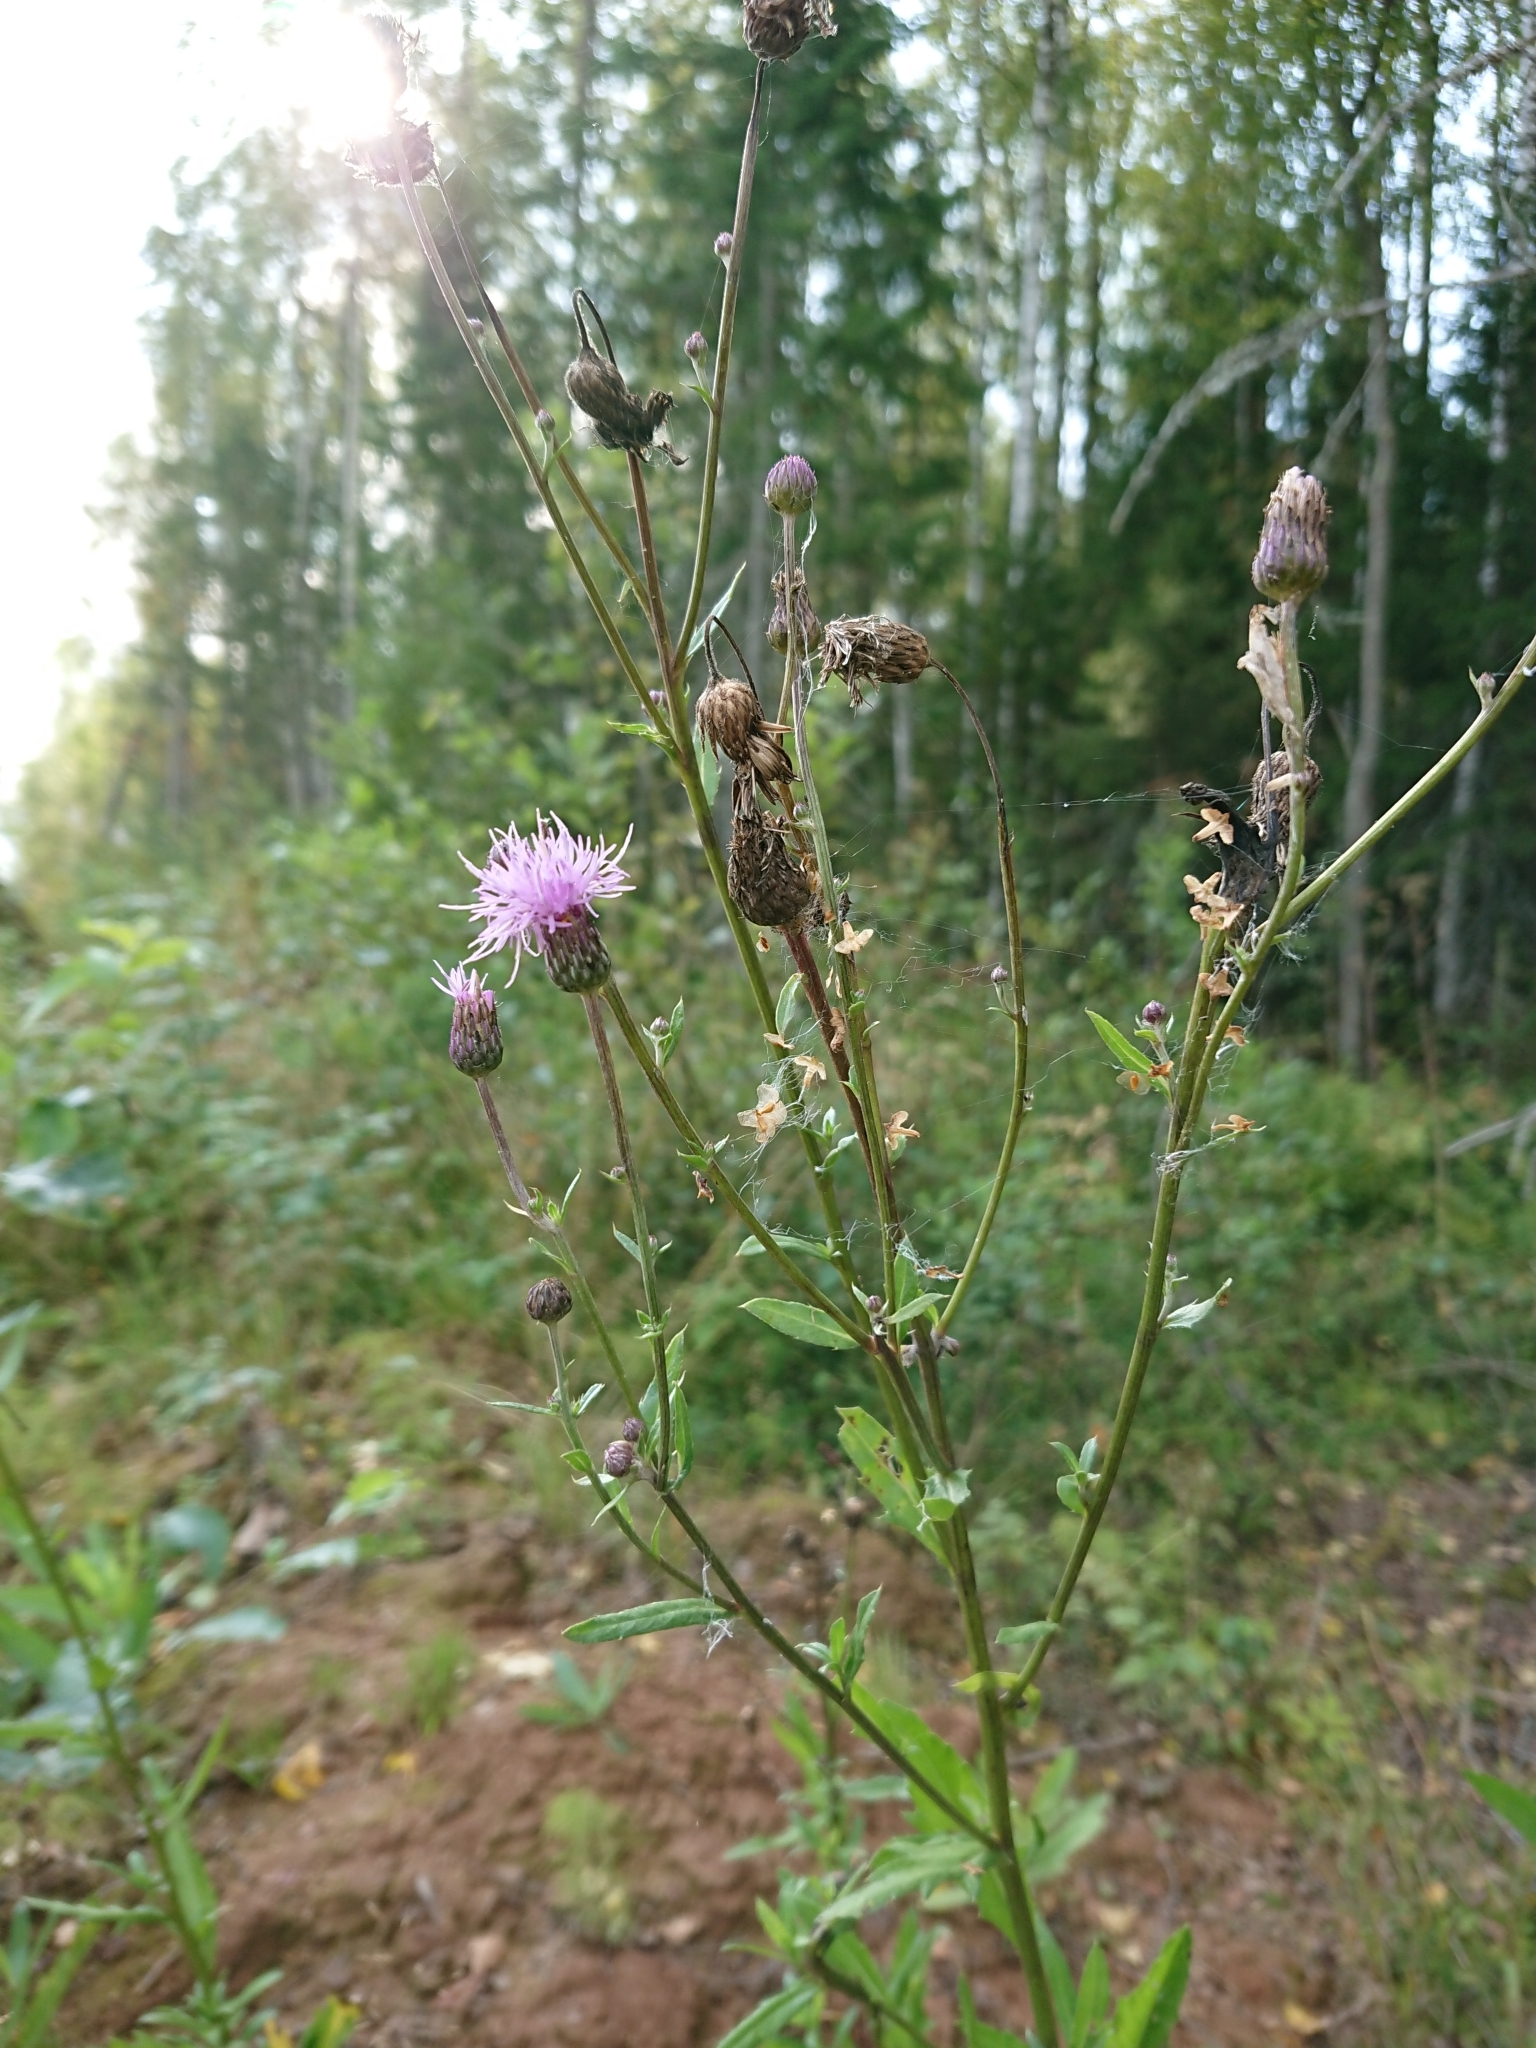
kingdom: Plantae
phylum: Tracheophyta
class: Magnoliopsida
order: Asterales
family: Asteraceae
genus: Cirsium
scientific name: Cirsium arvense
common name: Creeping thistle
